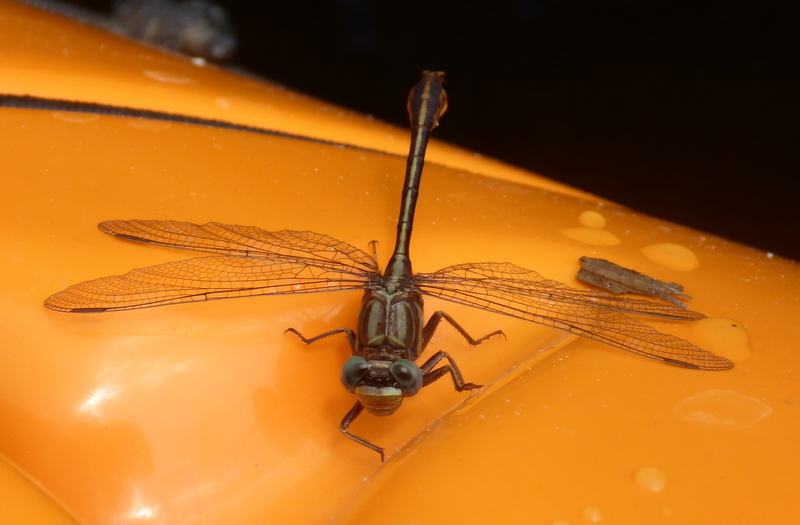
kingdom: Animalia
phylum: Arthropoda
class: Insecta
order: Odonata
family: Gomphidae
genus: Phanogomphus
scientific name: Phanogomphus minutus
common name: Cypress clubtail
